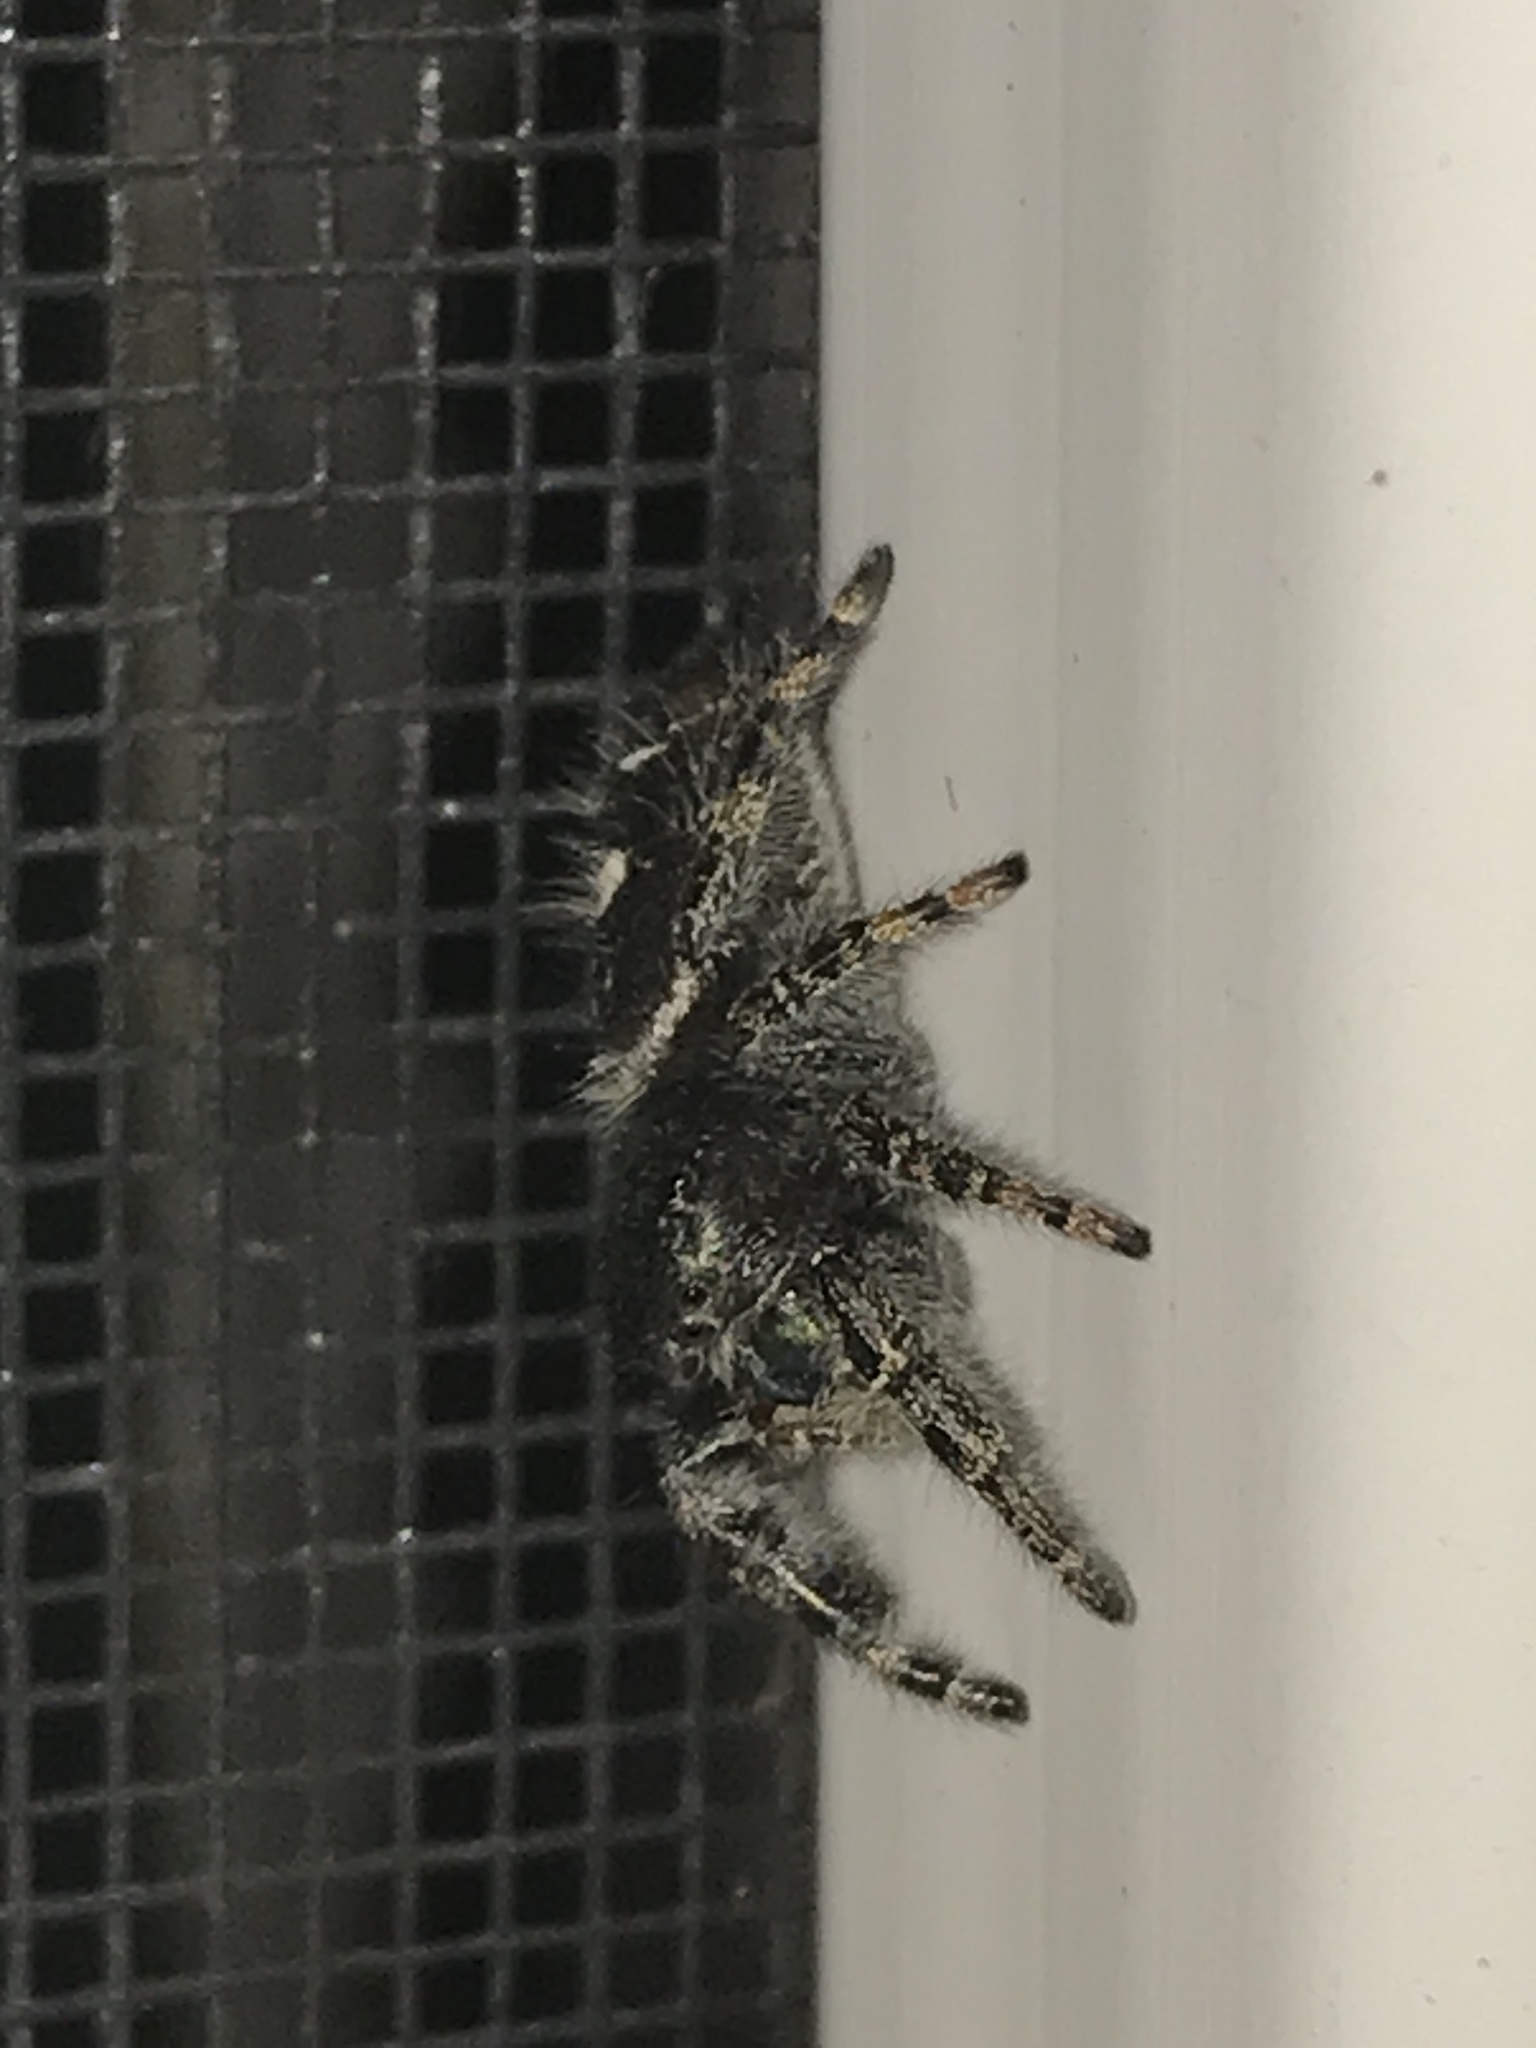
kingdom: Animalia
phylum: Arthropoda
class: Arachnida
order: Araneae
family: Salticidae
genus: Phidippus
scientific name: Phidippus audax
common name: Bold jumper
